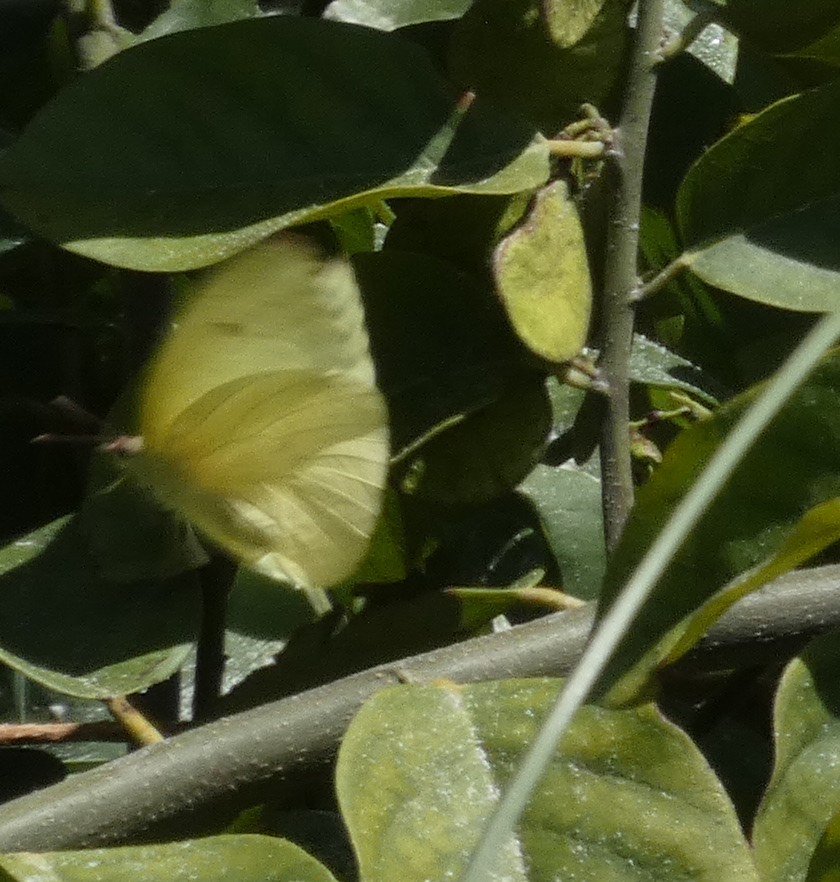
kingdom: Animalia
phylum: Arthropoda
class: Insecta
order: Lepidoptera
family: Pieridae
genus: Aphrissa
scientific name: Aphrissa statira
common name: Statira sulphur
